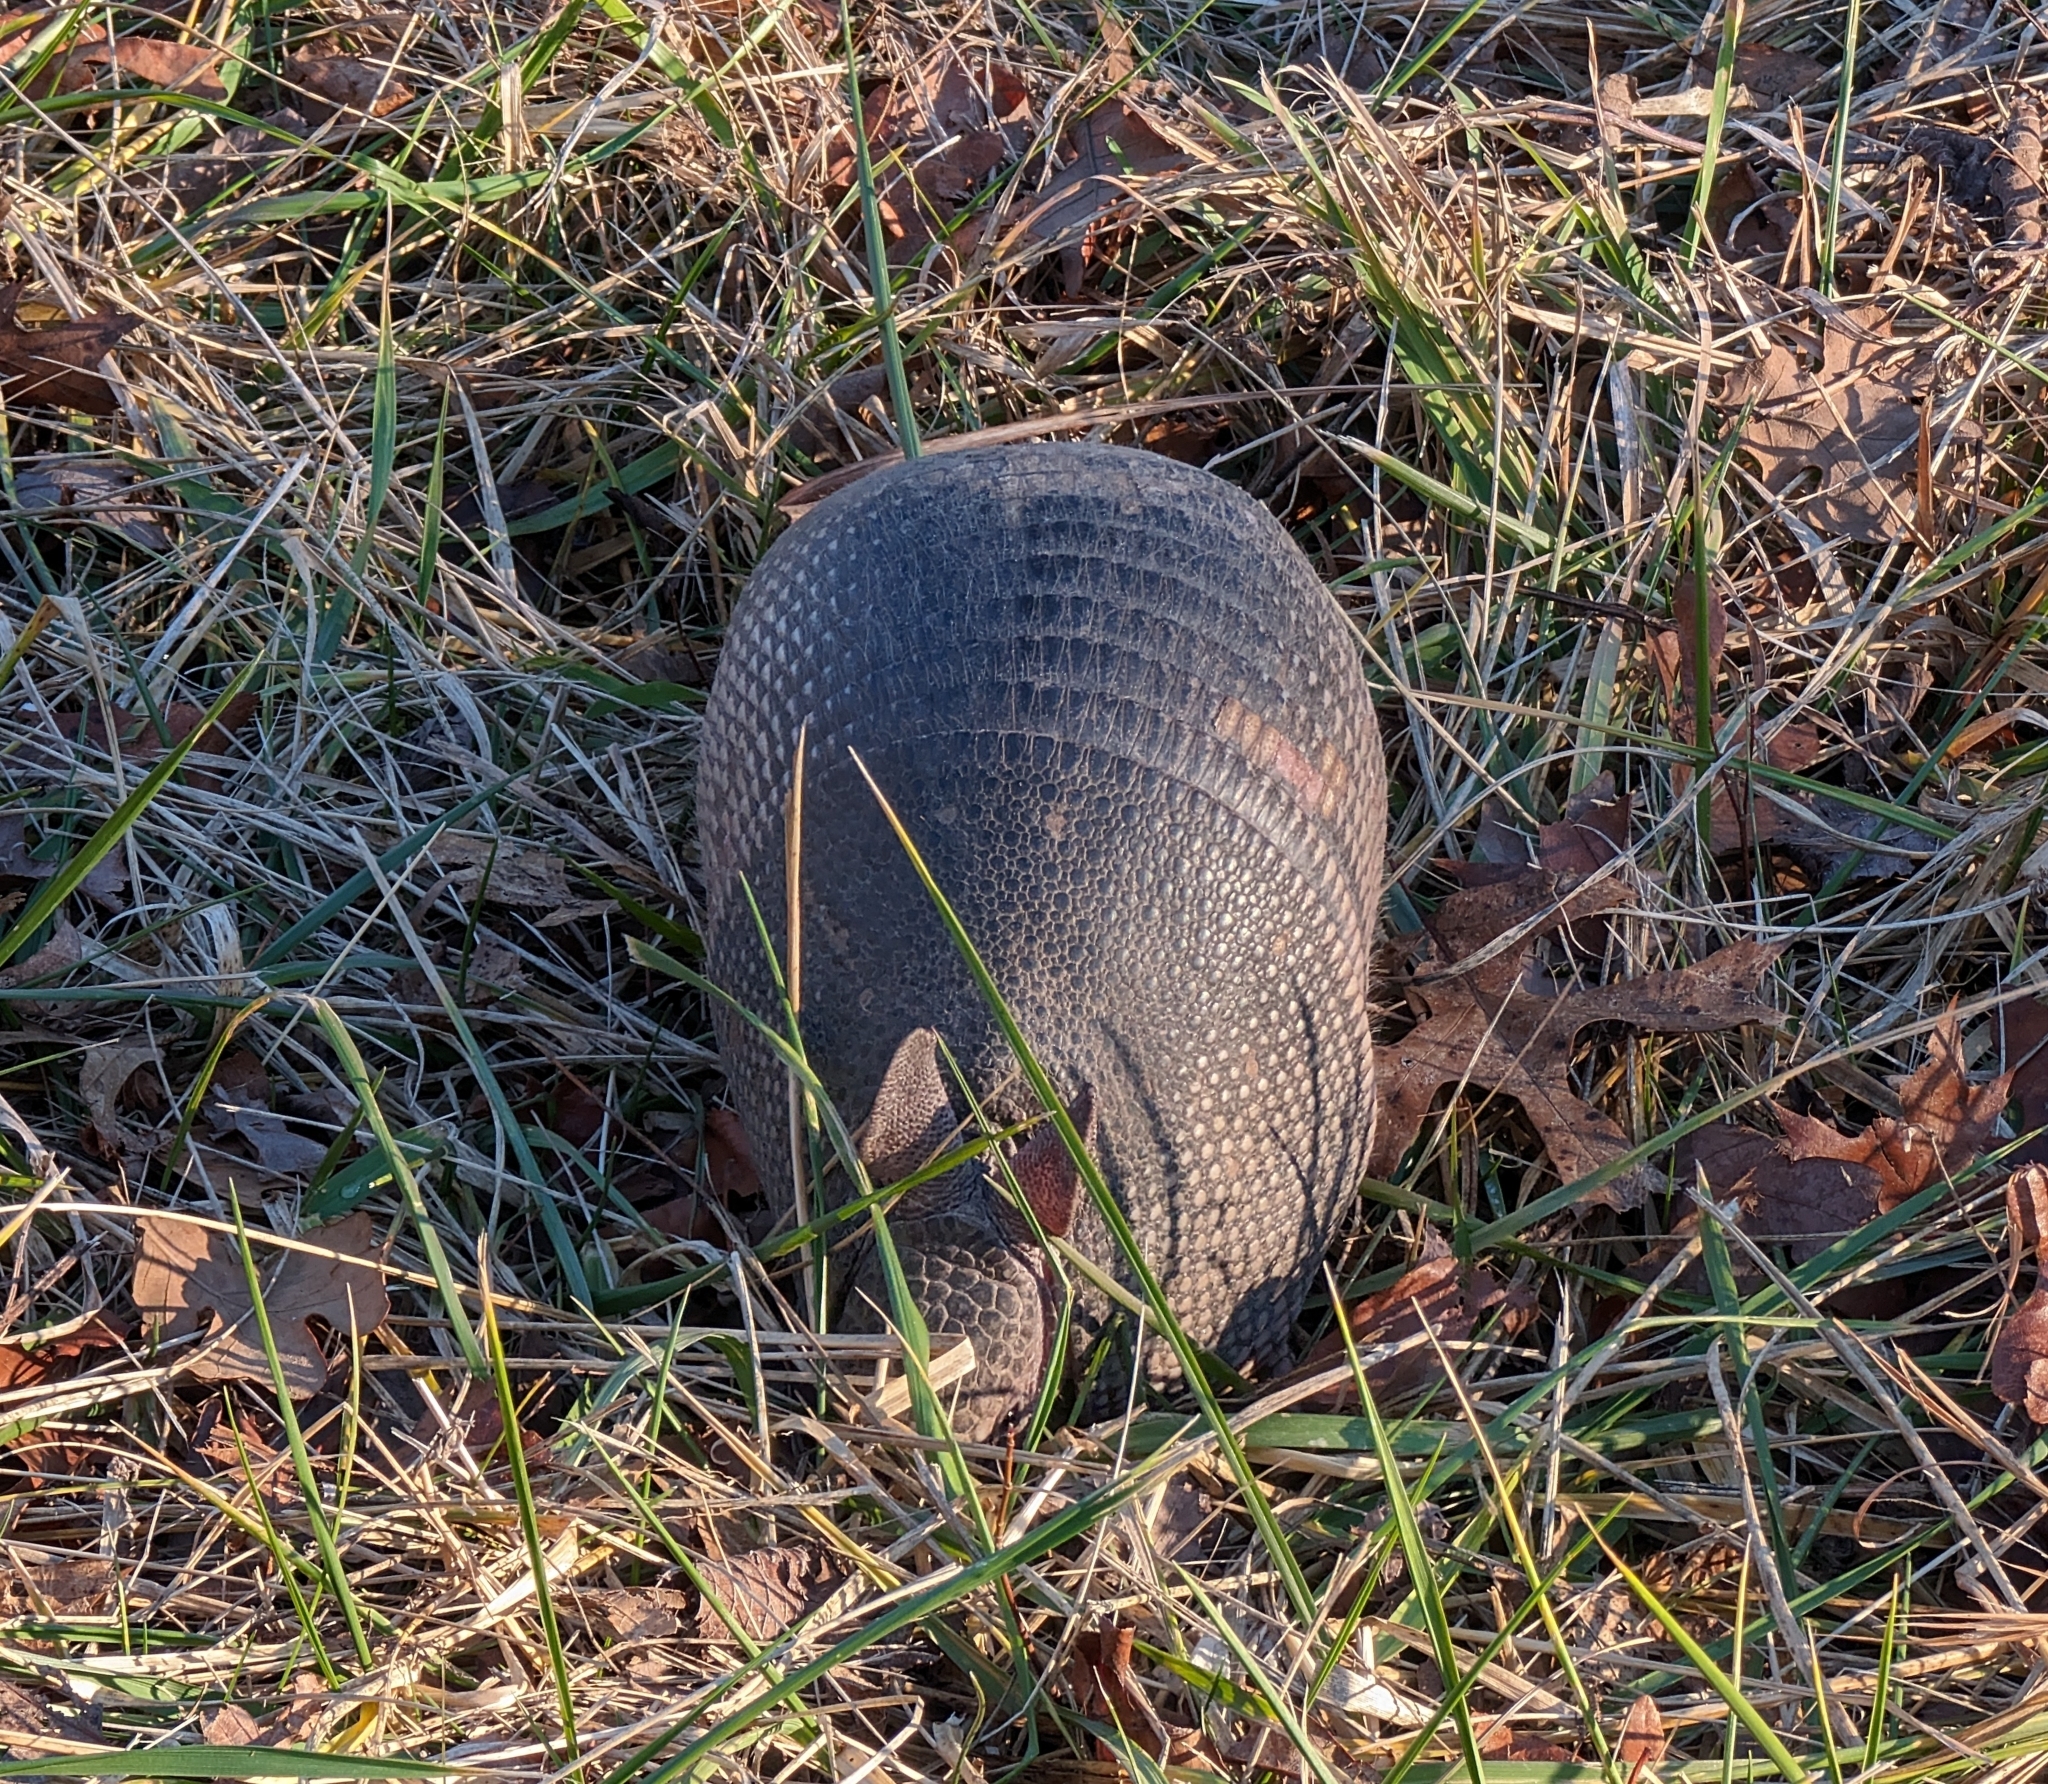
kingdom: Animalia
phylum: Chordata
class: Mammalia
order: Cingulata
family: Dasypodidae
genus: Dasypus
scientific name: Dasypus novemcinctus
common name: Nine-banded armadillo
